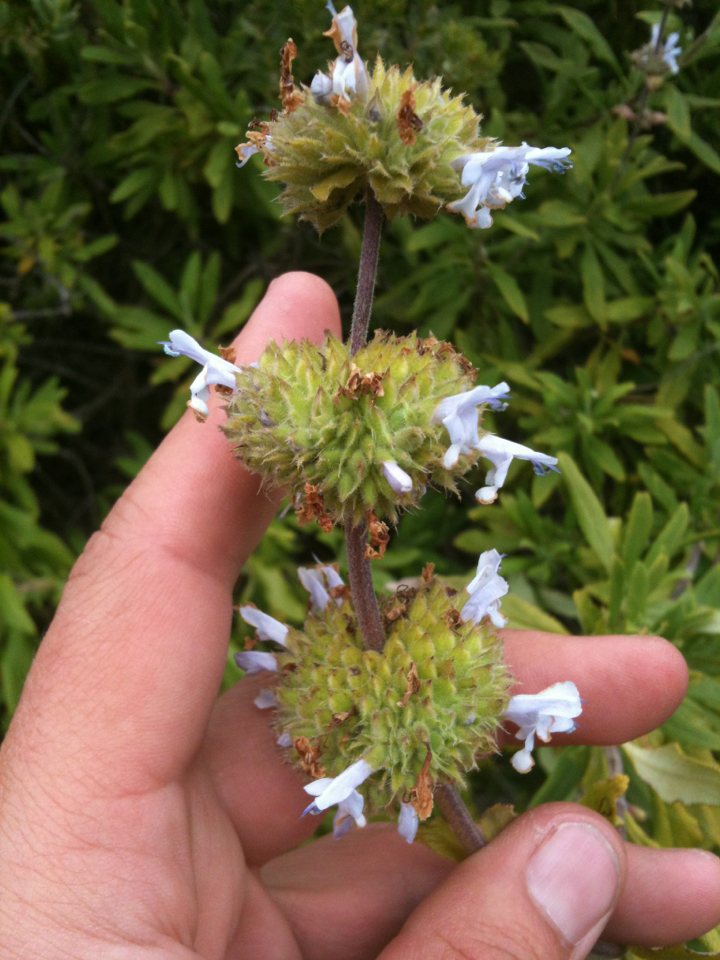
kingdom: Plantae
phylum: Tracheophyta
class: Magnoliopsida
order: Lamiales
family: Lamiaceae
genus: Salvia
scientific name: Salvia mellifera
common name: Black sage
